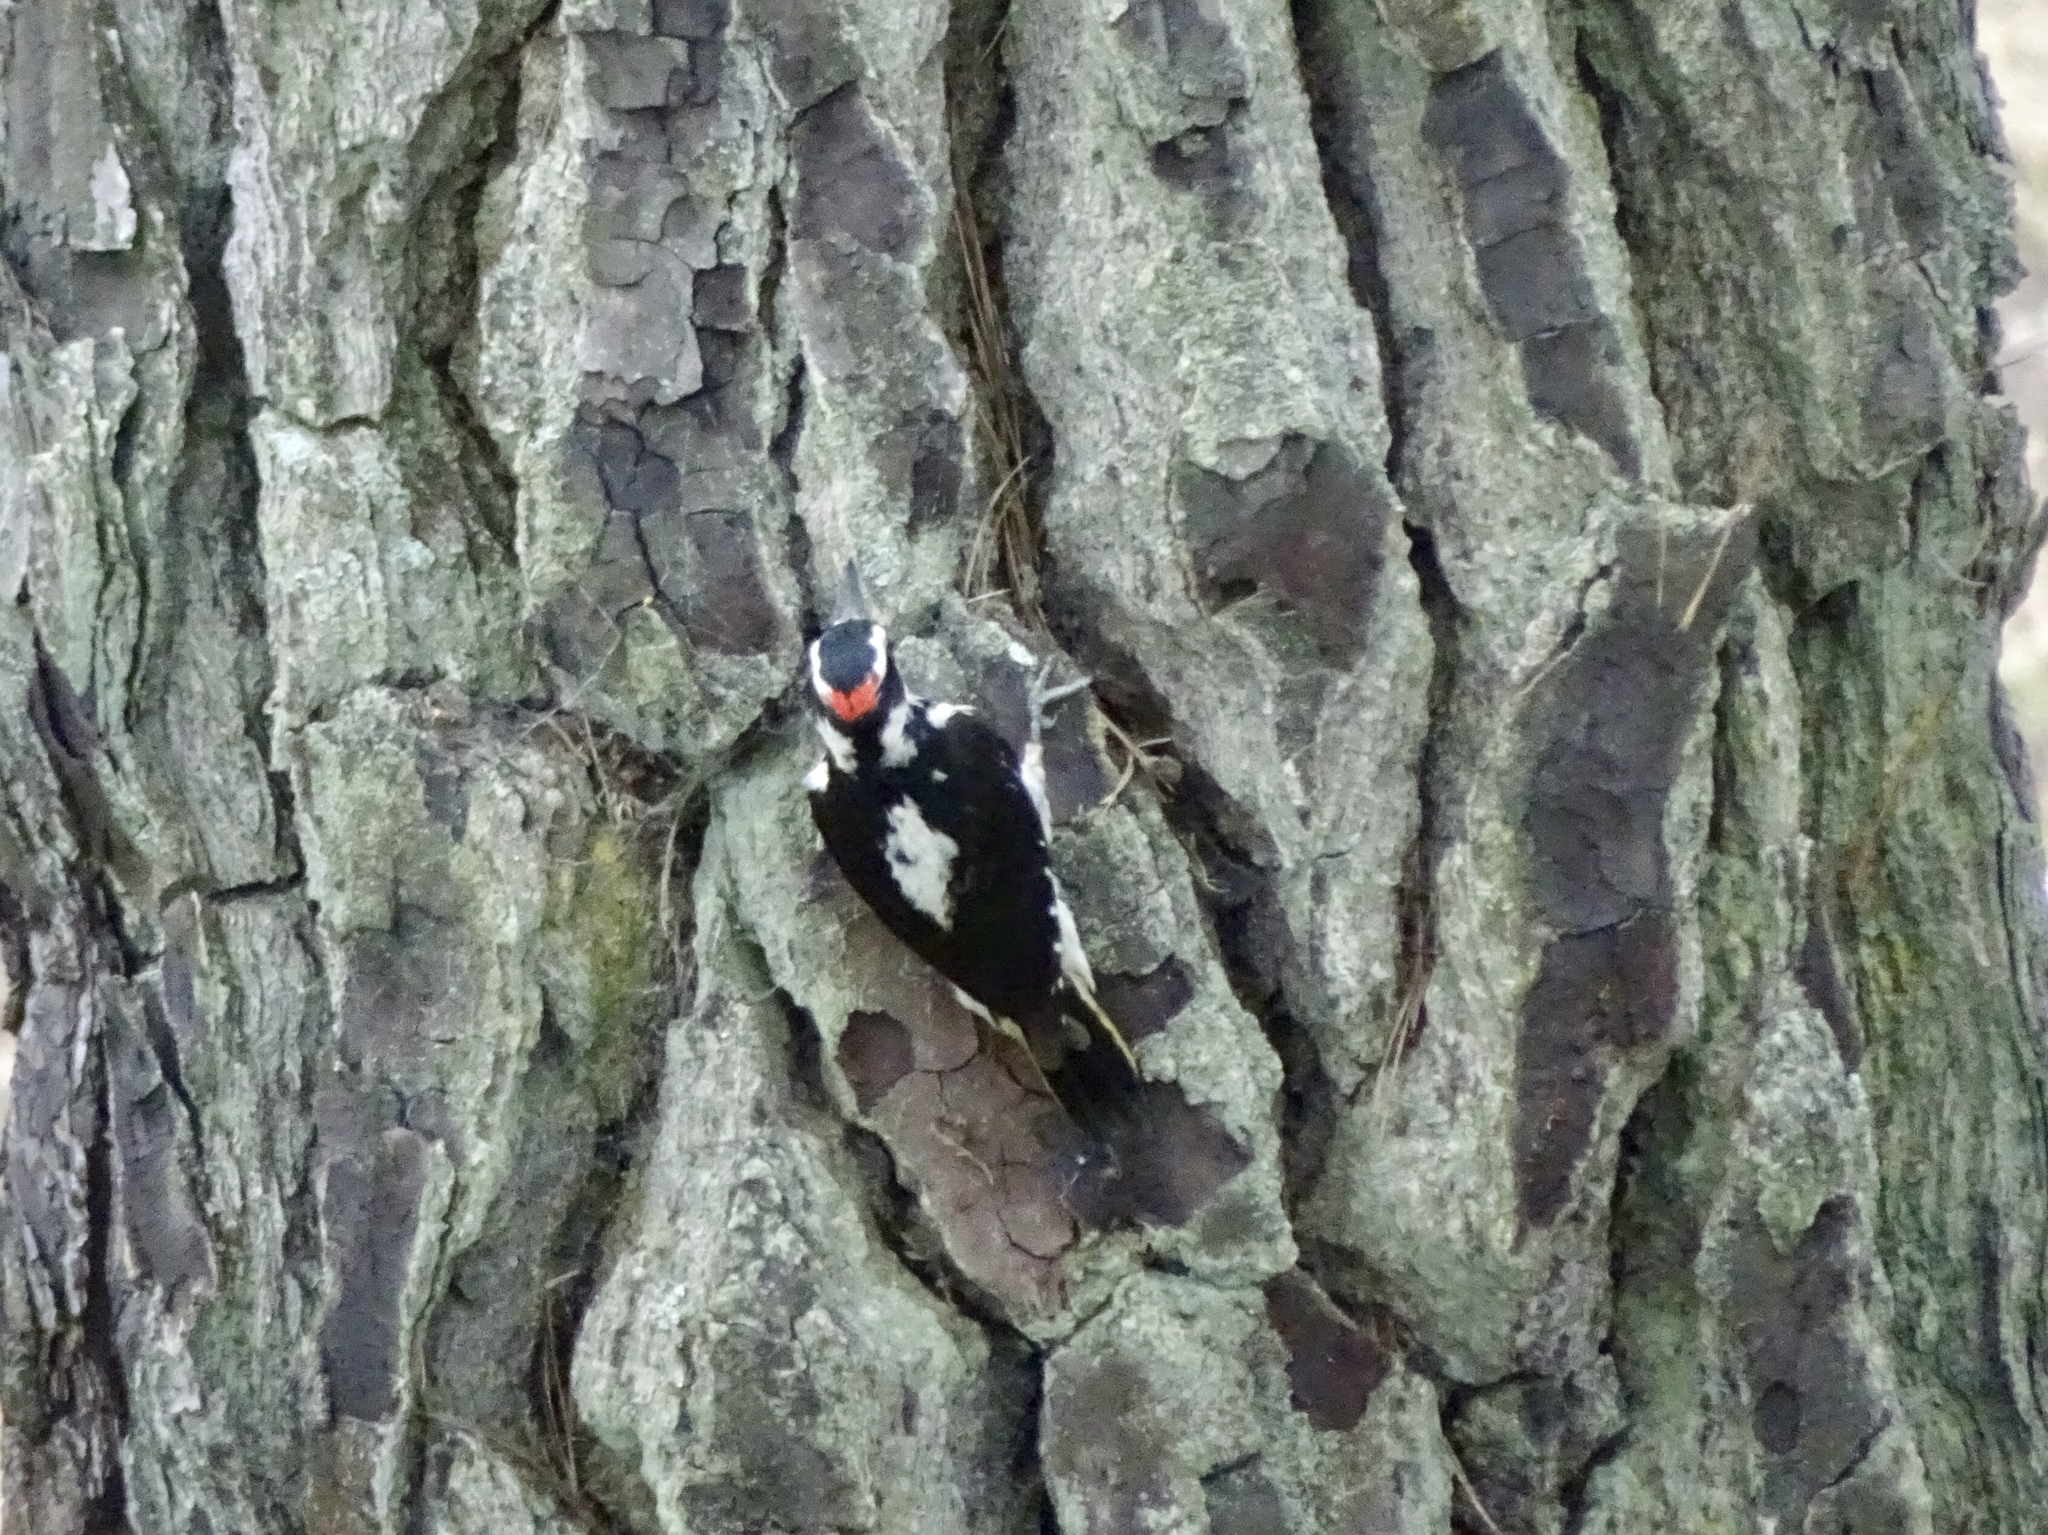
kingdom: Animalia
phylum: Chordata
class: Aves
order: Piciformes
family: Picidae
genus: Leuconotopicus
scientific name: Leuconotopicus villosus
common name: Hairy woodpecker
